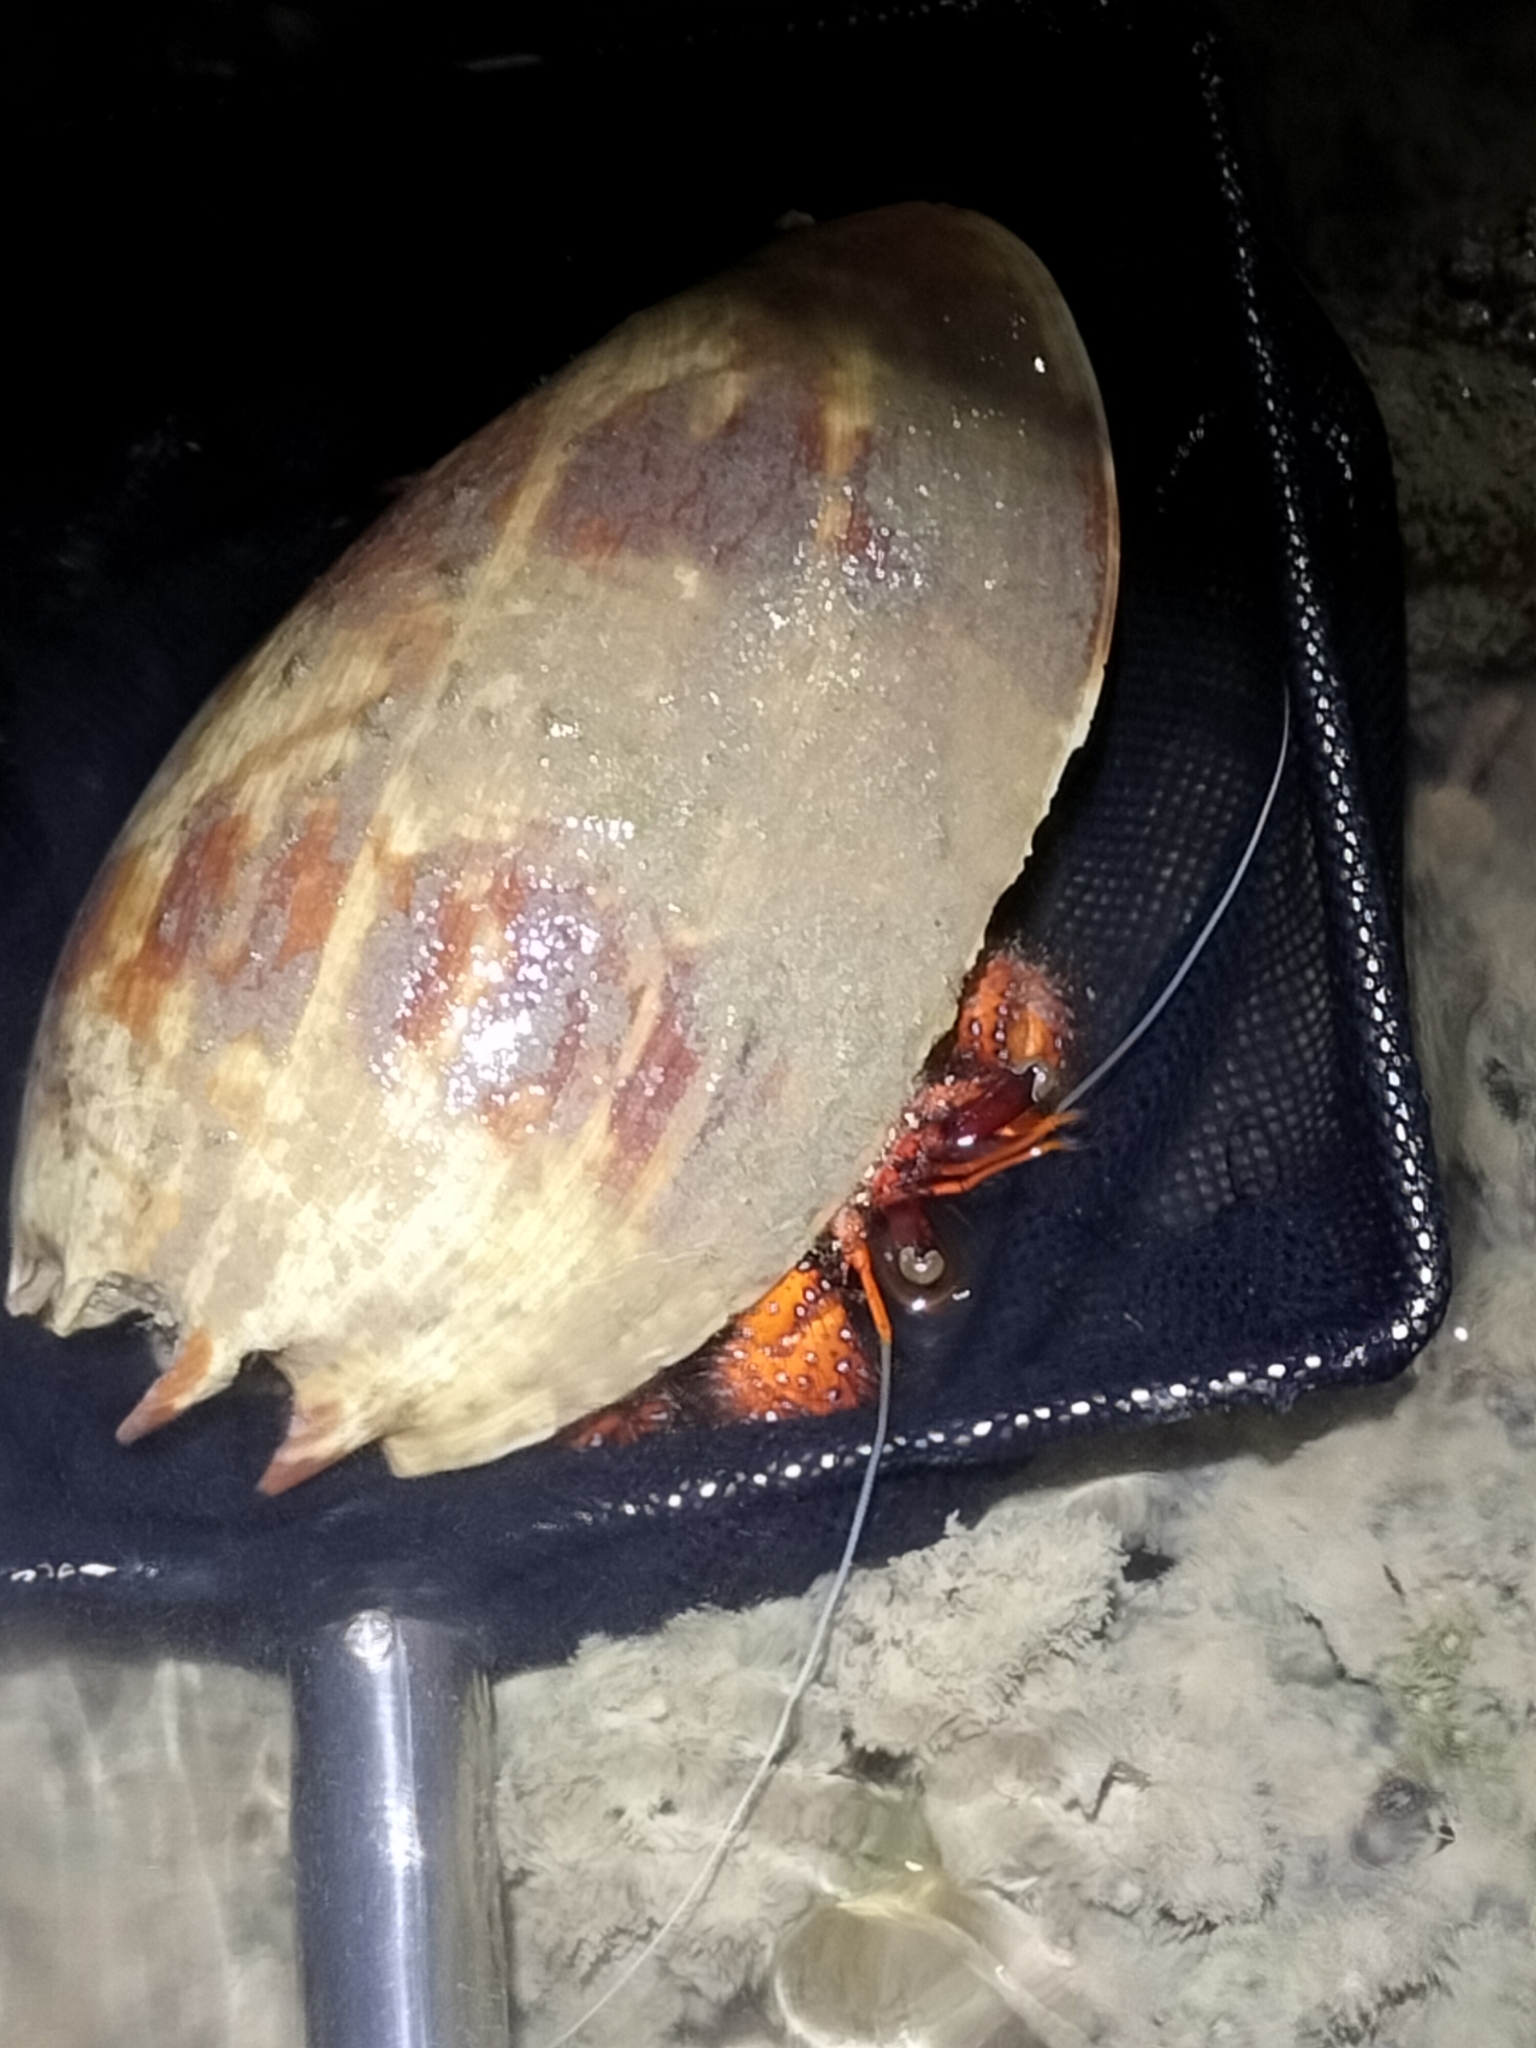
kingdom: Animalia
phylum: Arthropoda
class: Malacostraca
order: Decapoda
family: Diogenidae
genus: Dardanus
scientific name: Dardanus megistos
